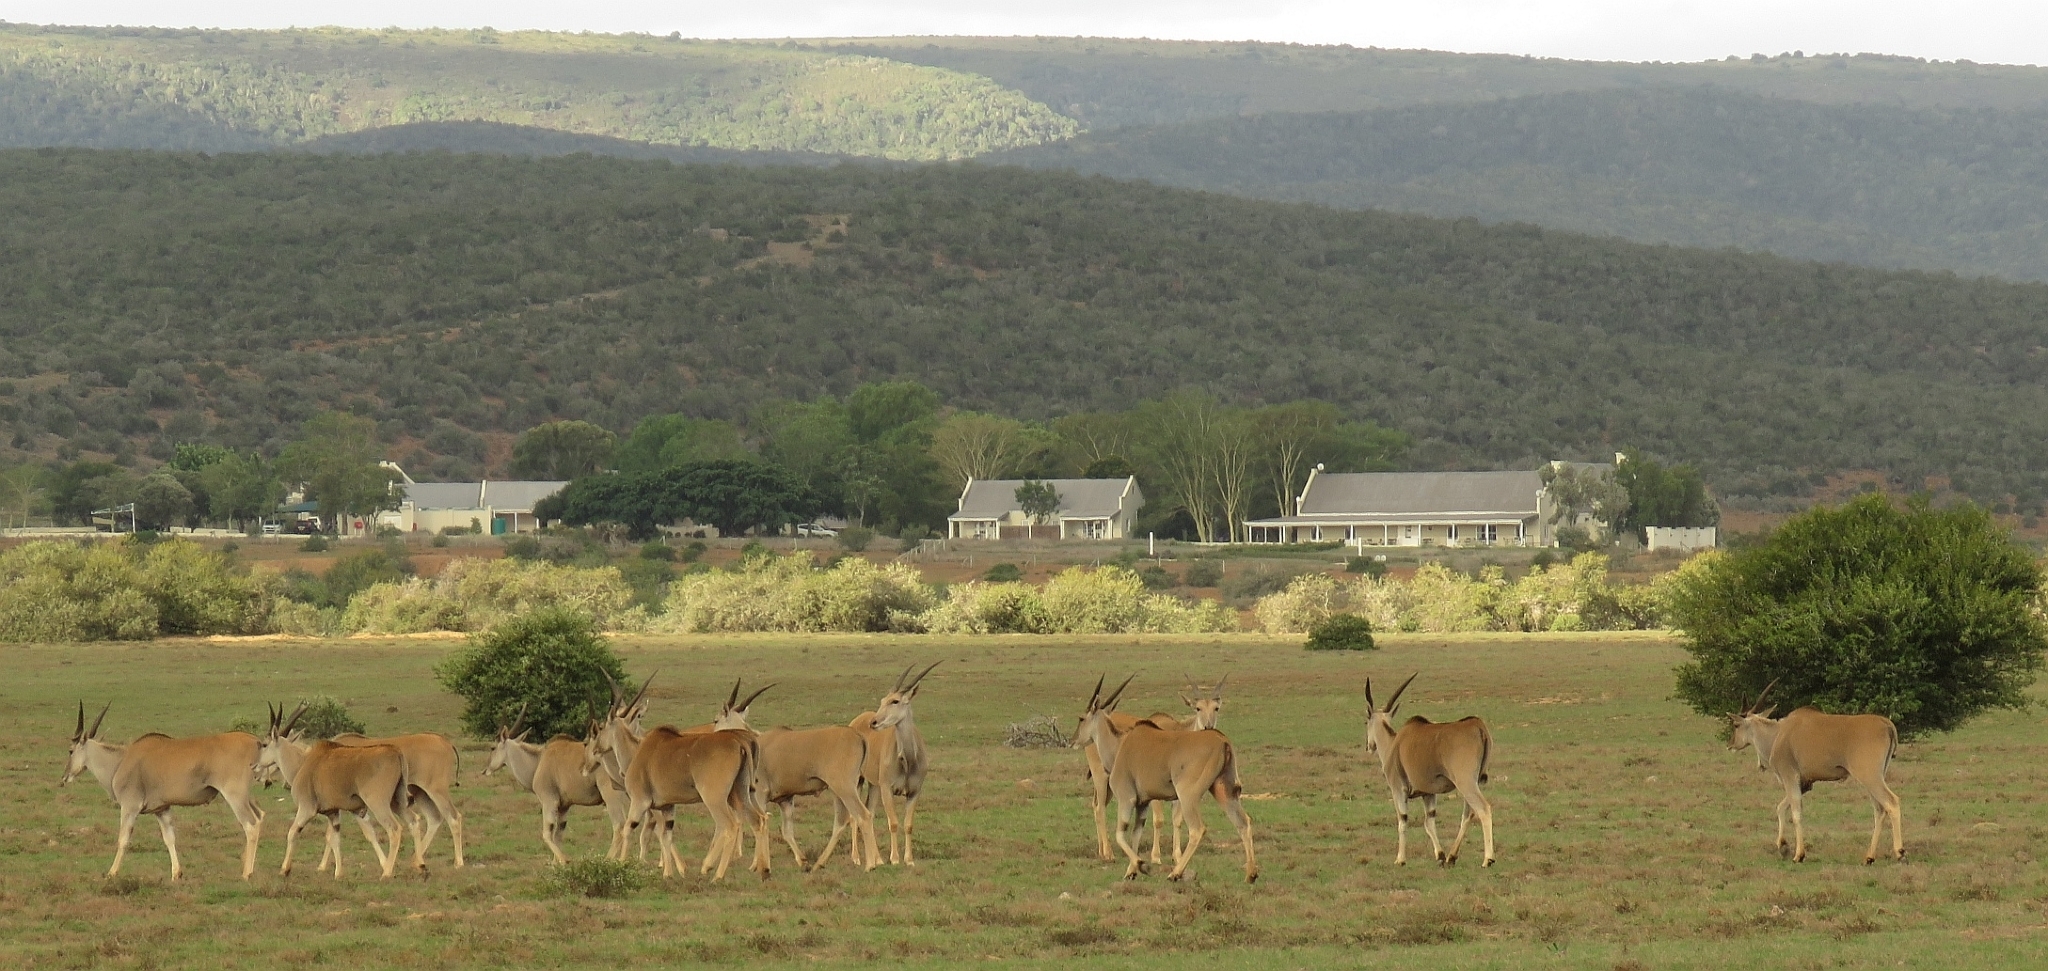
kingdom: Animalia
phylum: Chordata
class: Mammalia
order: Artiodactyla
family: Bovidae
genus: Taurotragus
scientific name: Taurotragus oryx
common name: Common eland
